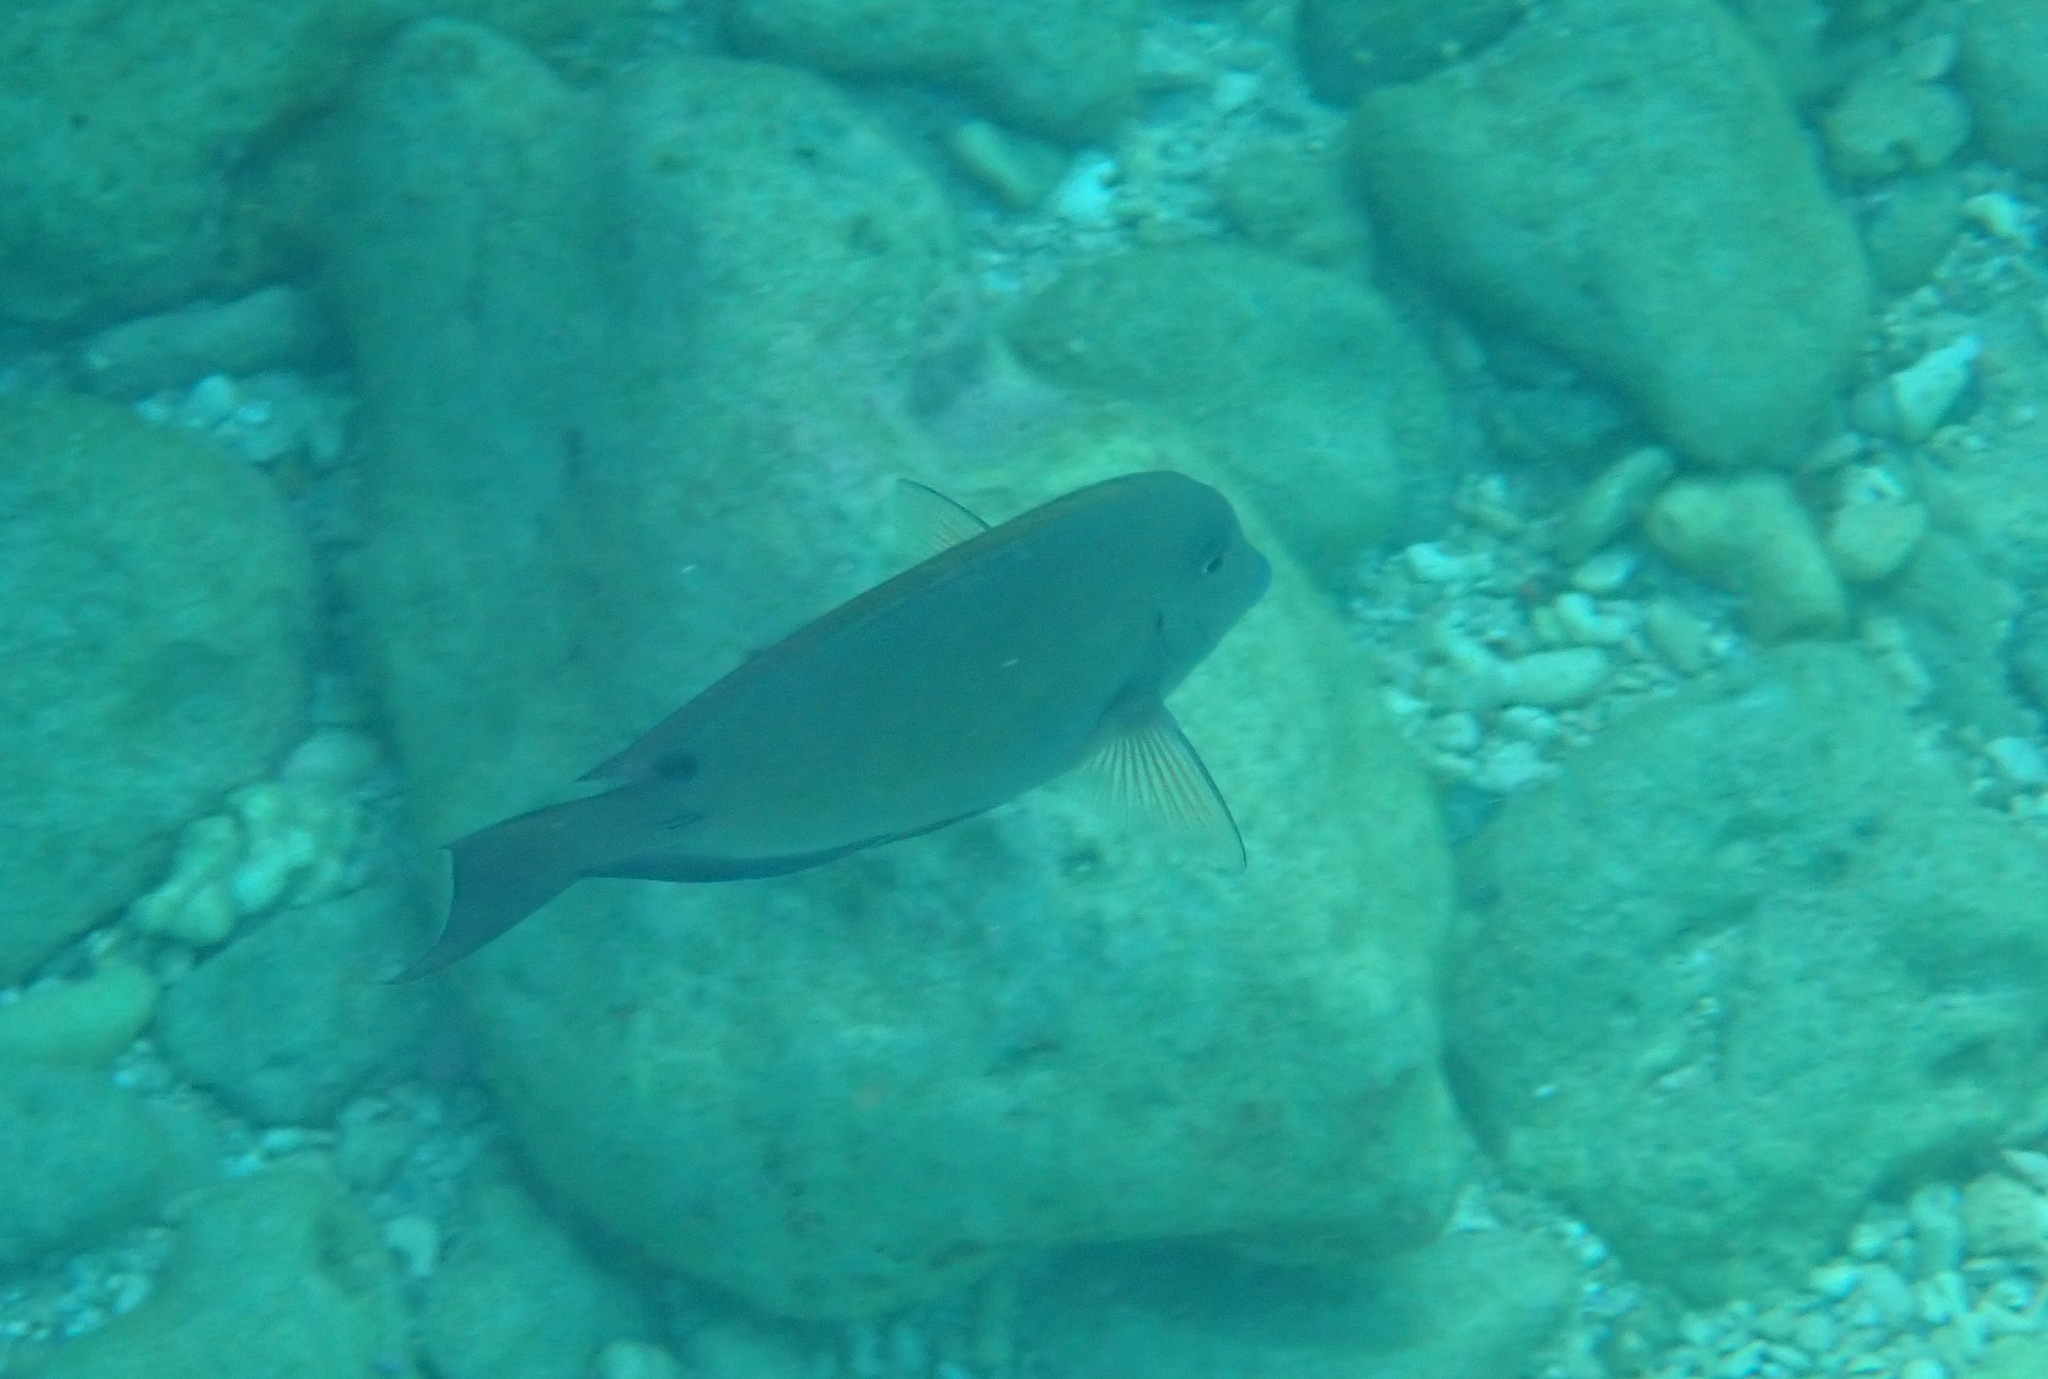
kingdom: Animalia
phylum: Chordata
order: Perciformes
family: Acanthuridae
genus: Acanthurus
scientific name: Acanthurus nigrofuscus
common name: Blackspot surgeonfish
